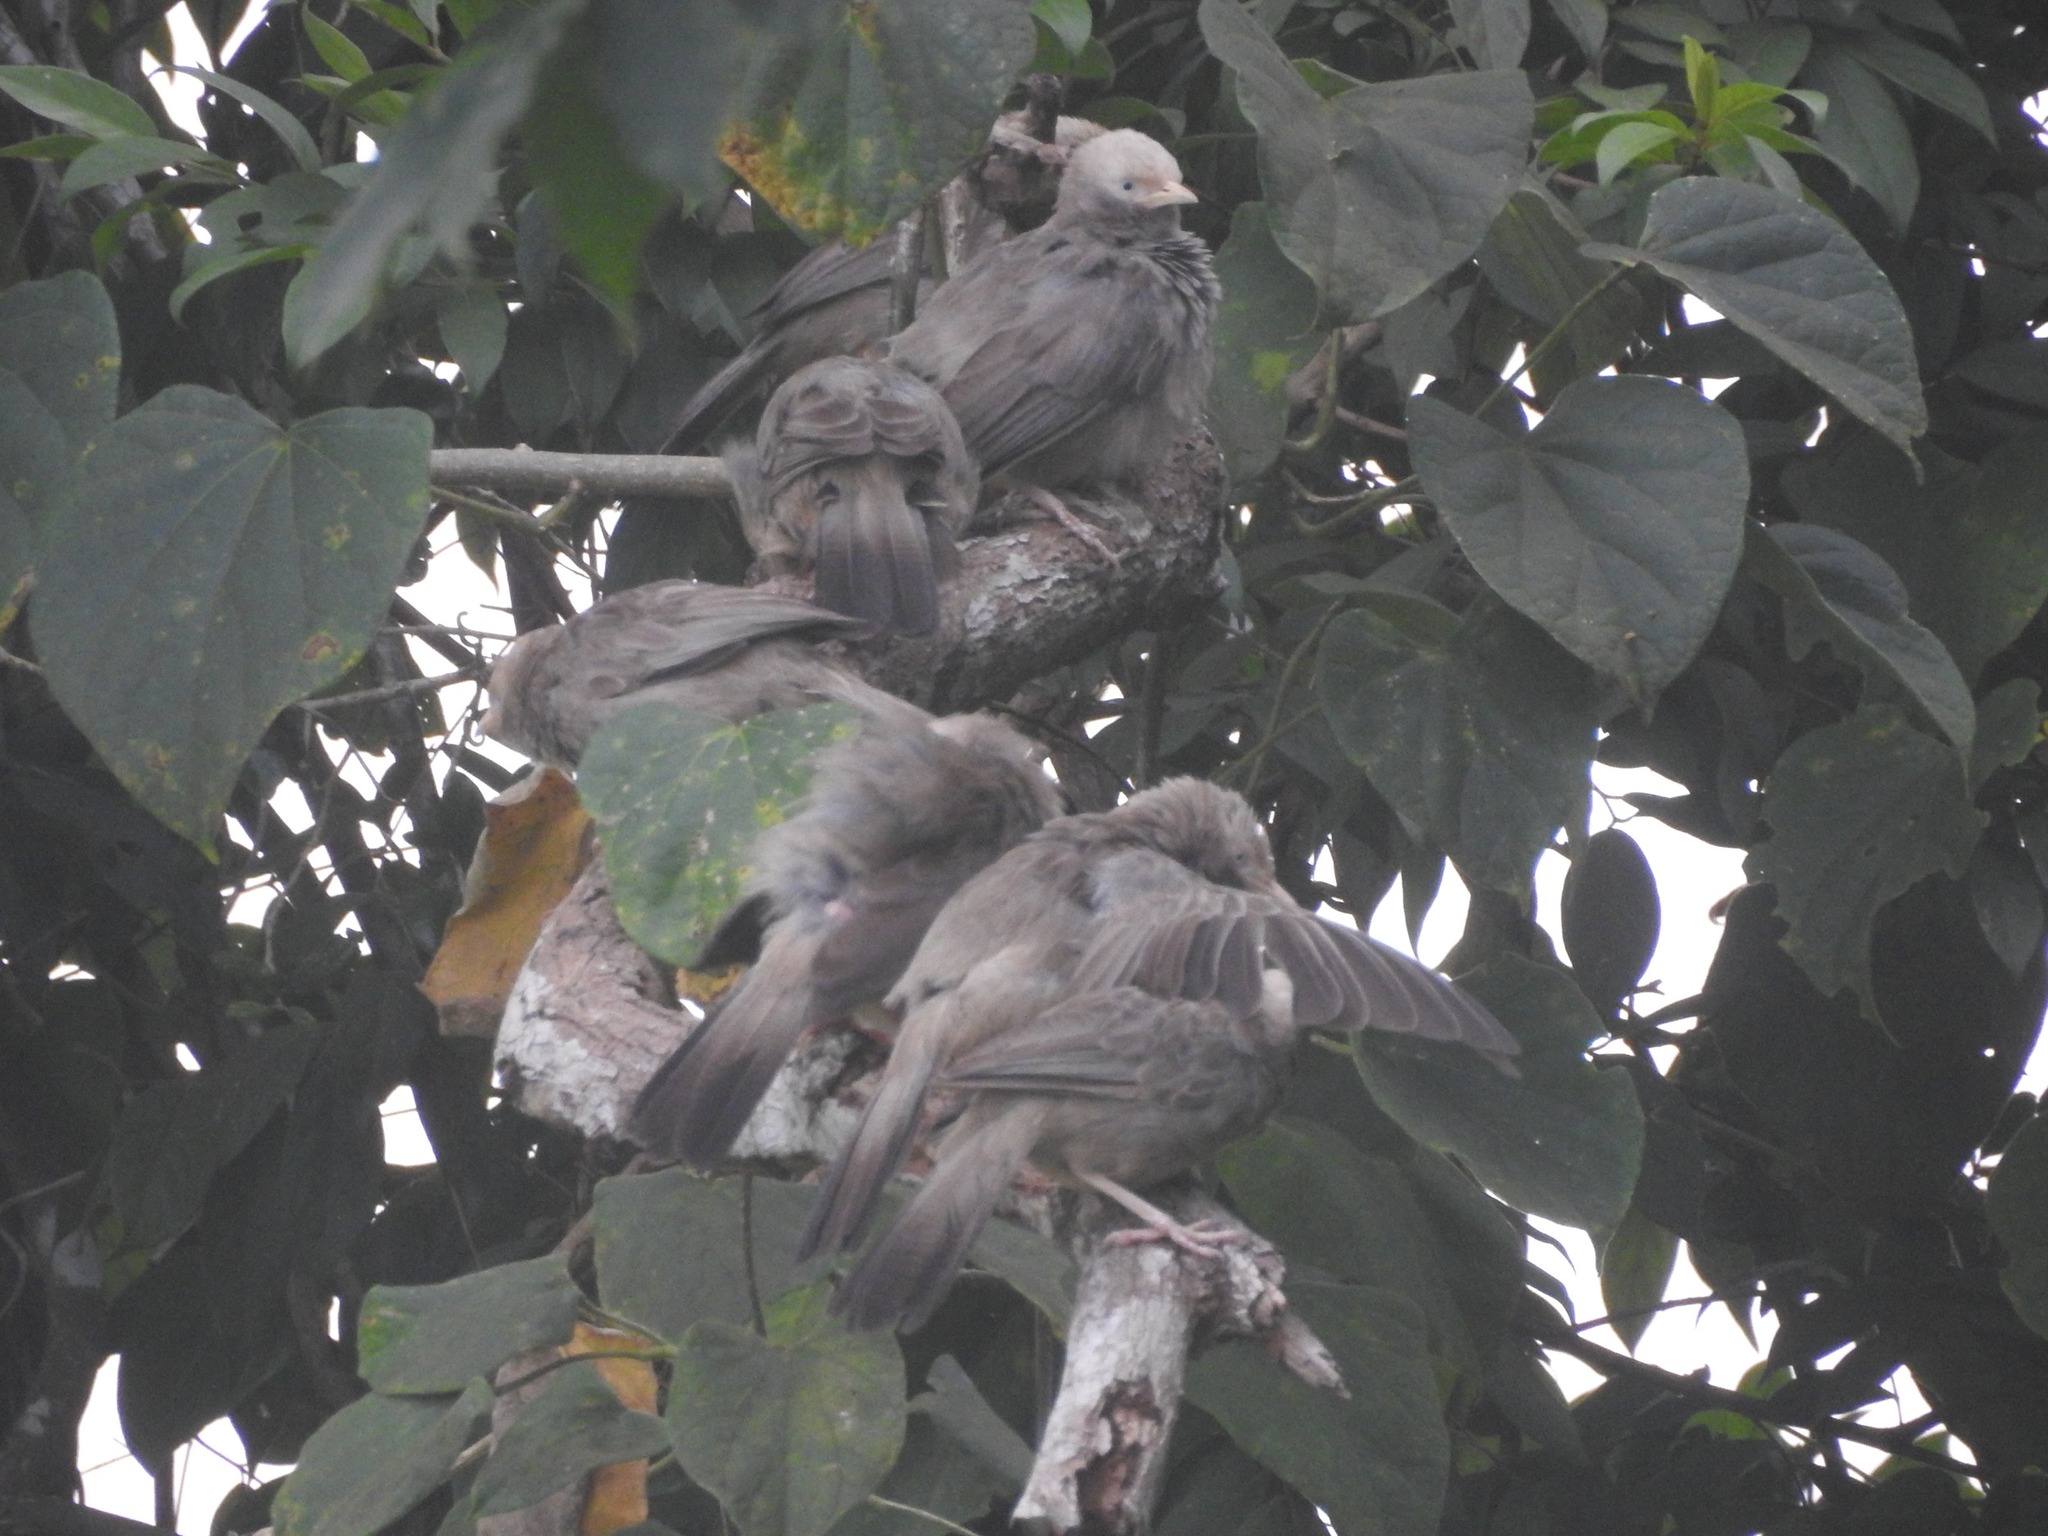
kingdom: Animalia
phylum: Chordata
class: Aves
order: Passeriformes
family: Leiothrichidae
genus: Turdoides
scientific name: Turdoides affinis
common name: Yellow-billed babbler
